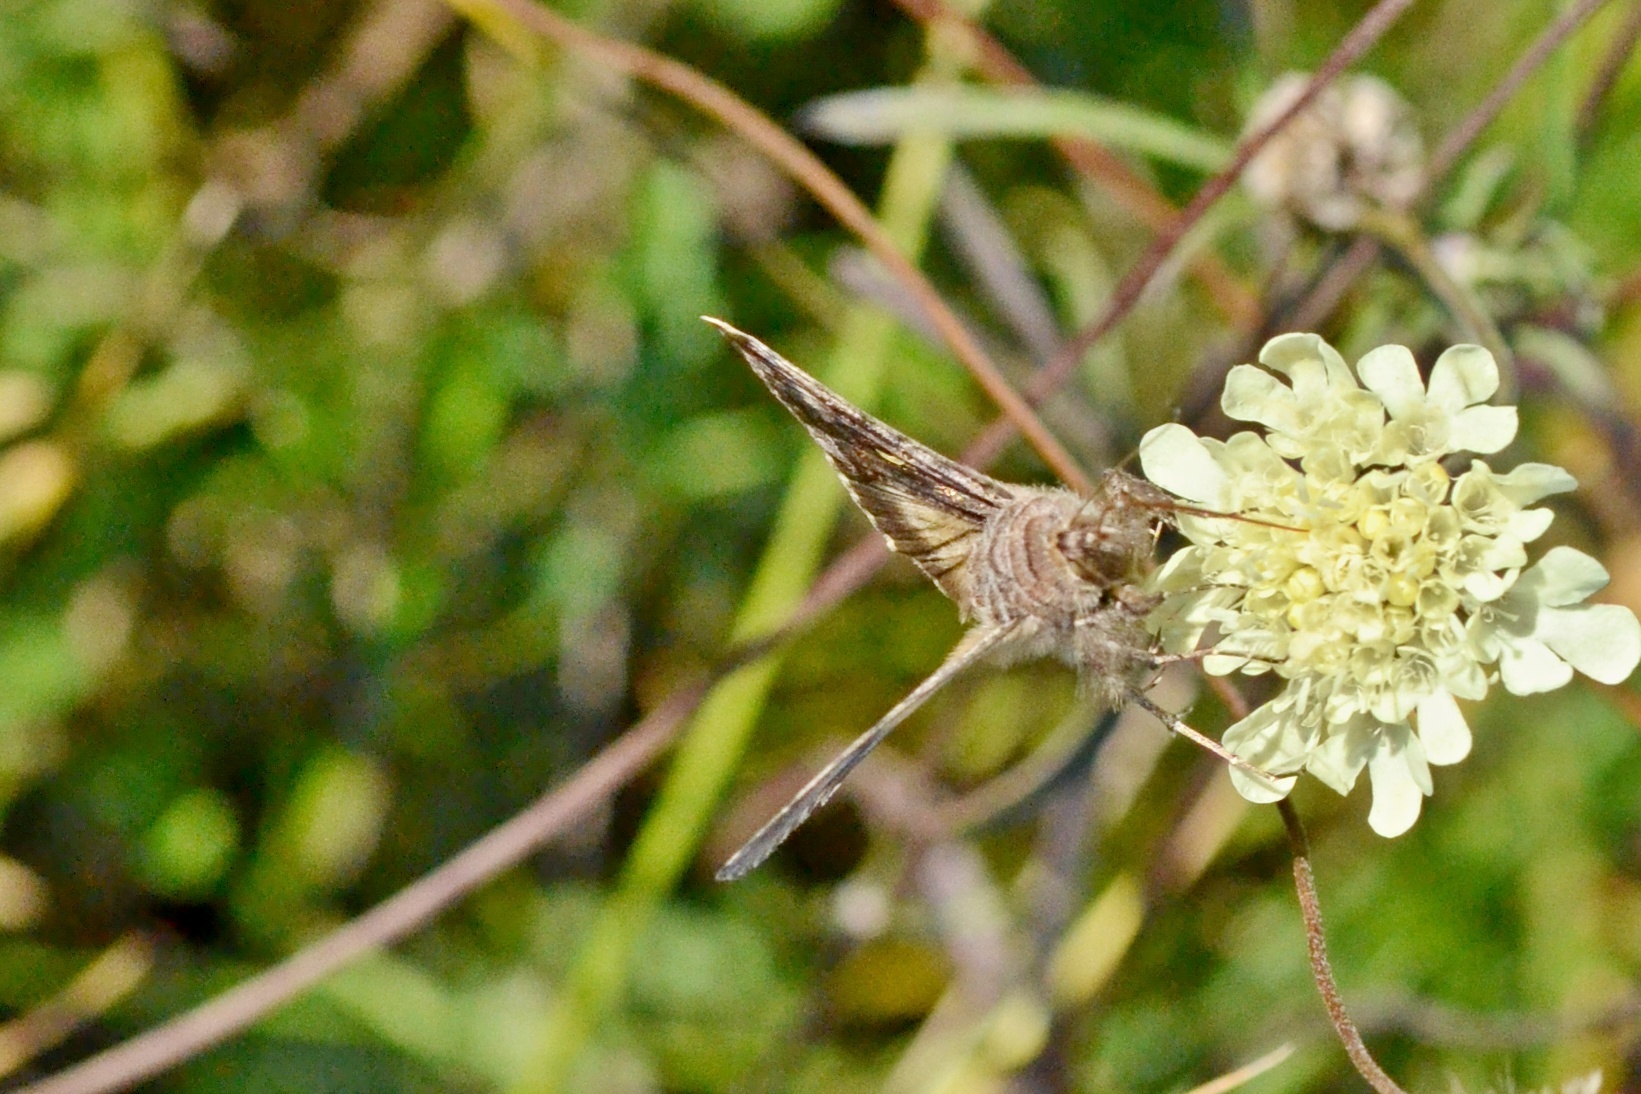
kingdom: Animalia
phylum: Arthropoda
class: Insecta
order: Lepidoptera
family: Noctuidae
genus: Autographa
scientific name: Autographa gamma
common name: Silver y
